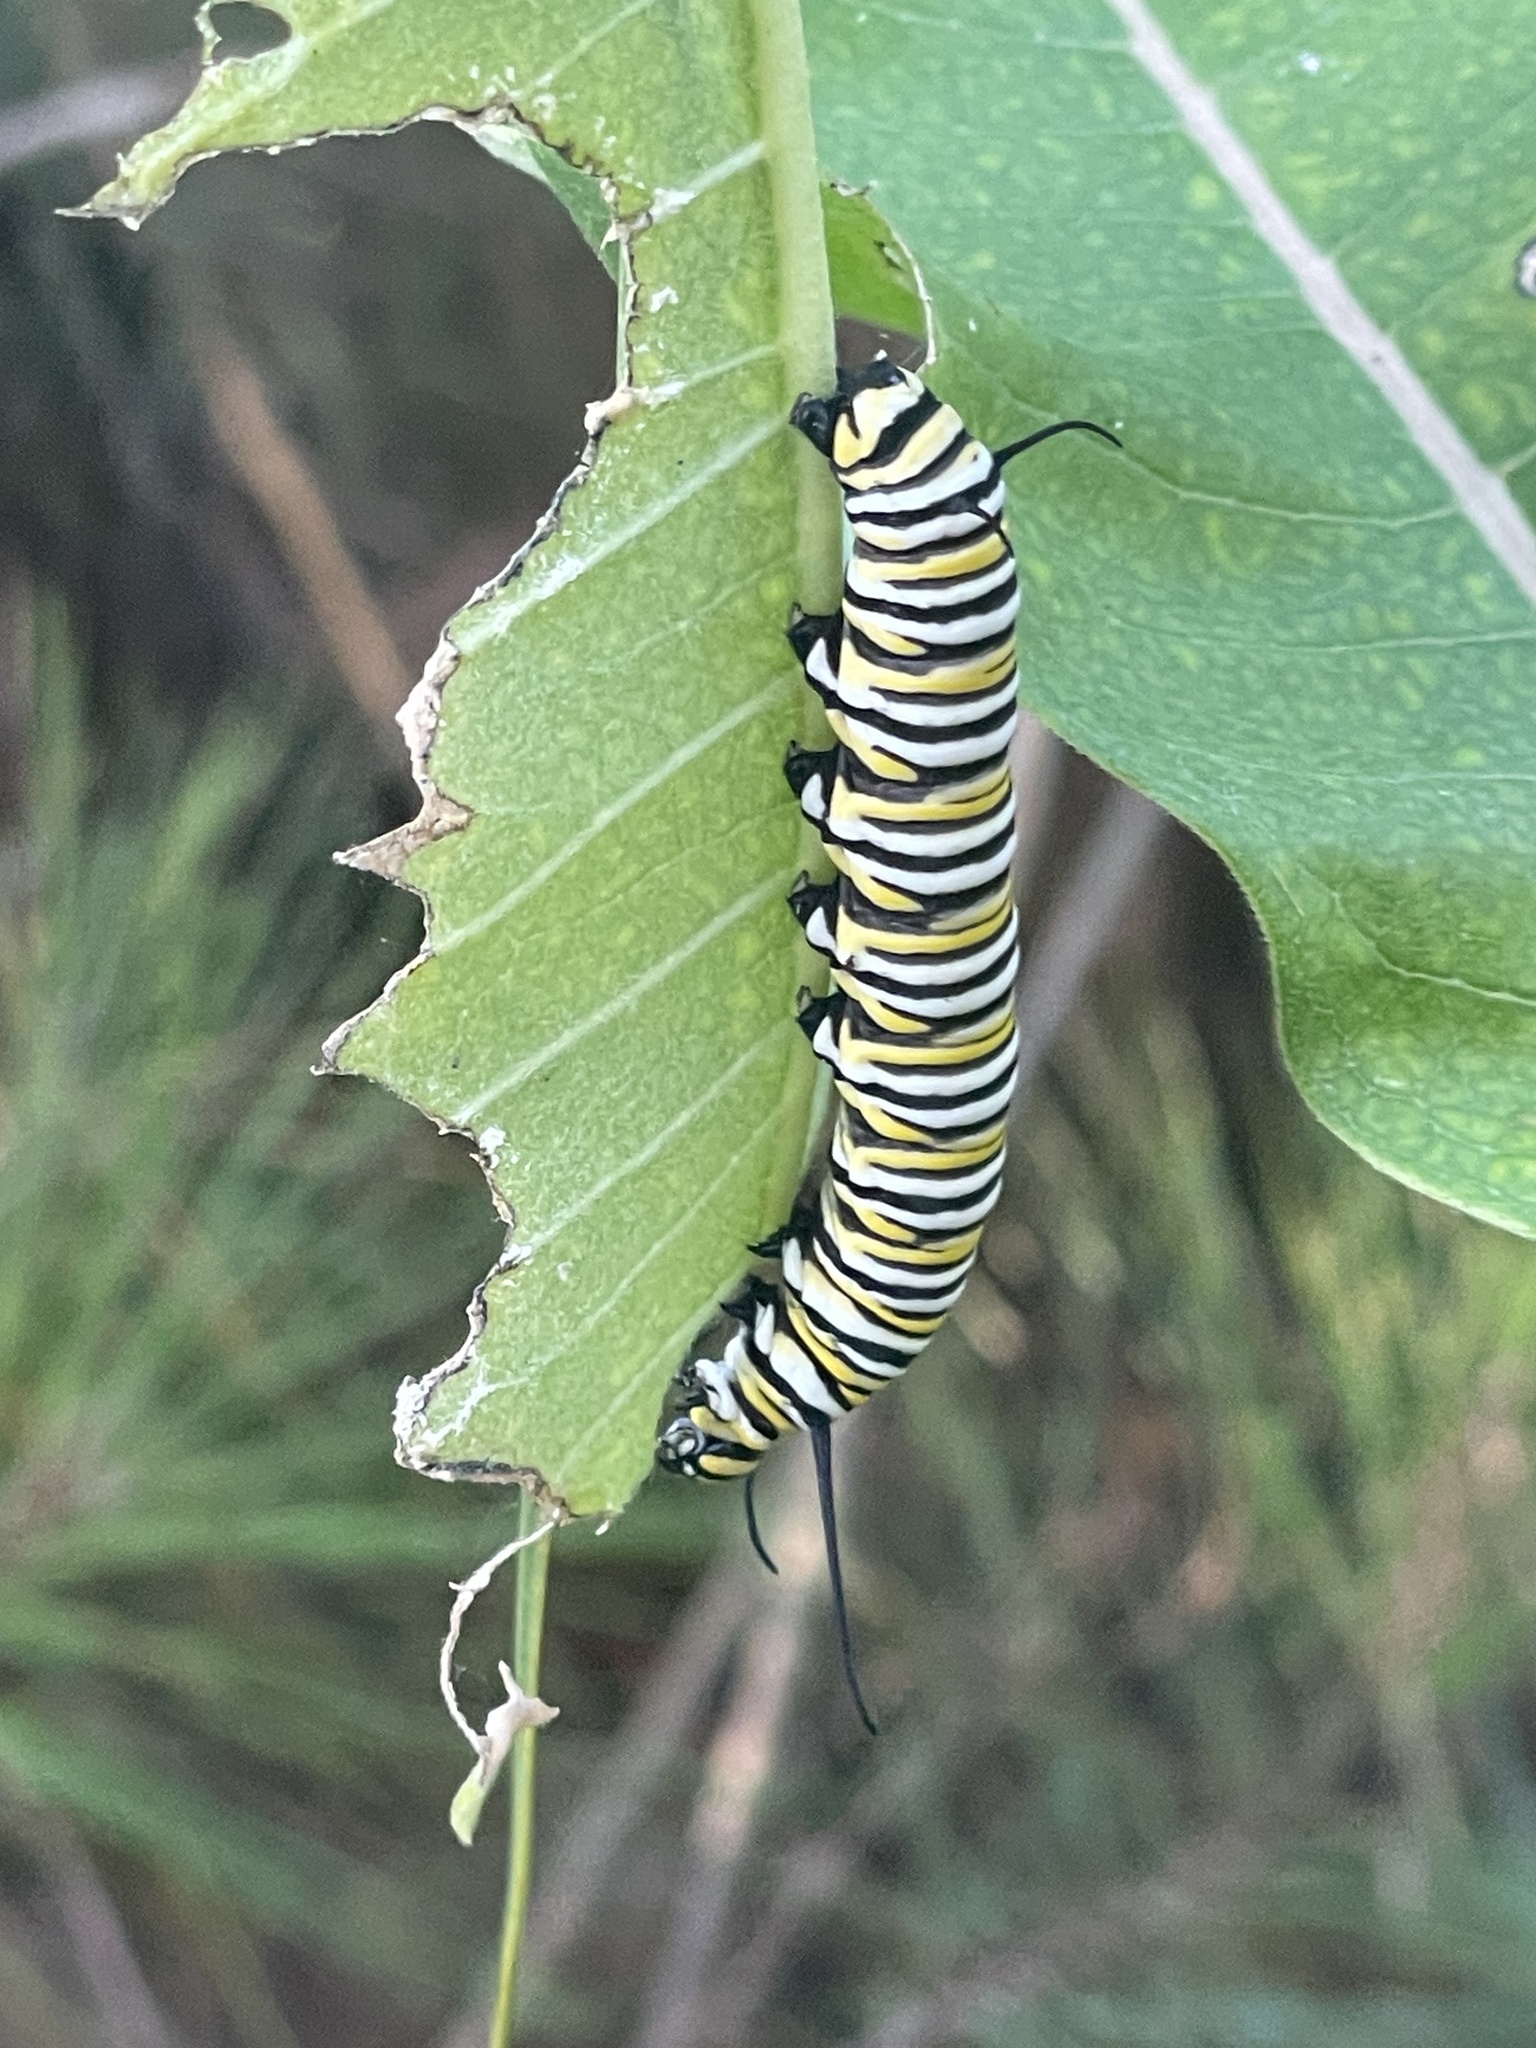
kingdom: Animalia
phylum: Arthropoda
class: Insecta
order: Lepidoptera
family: Nymphalidae
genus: Danaus
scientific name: Danaus plexippus
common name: Monarch
